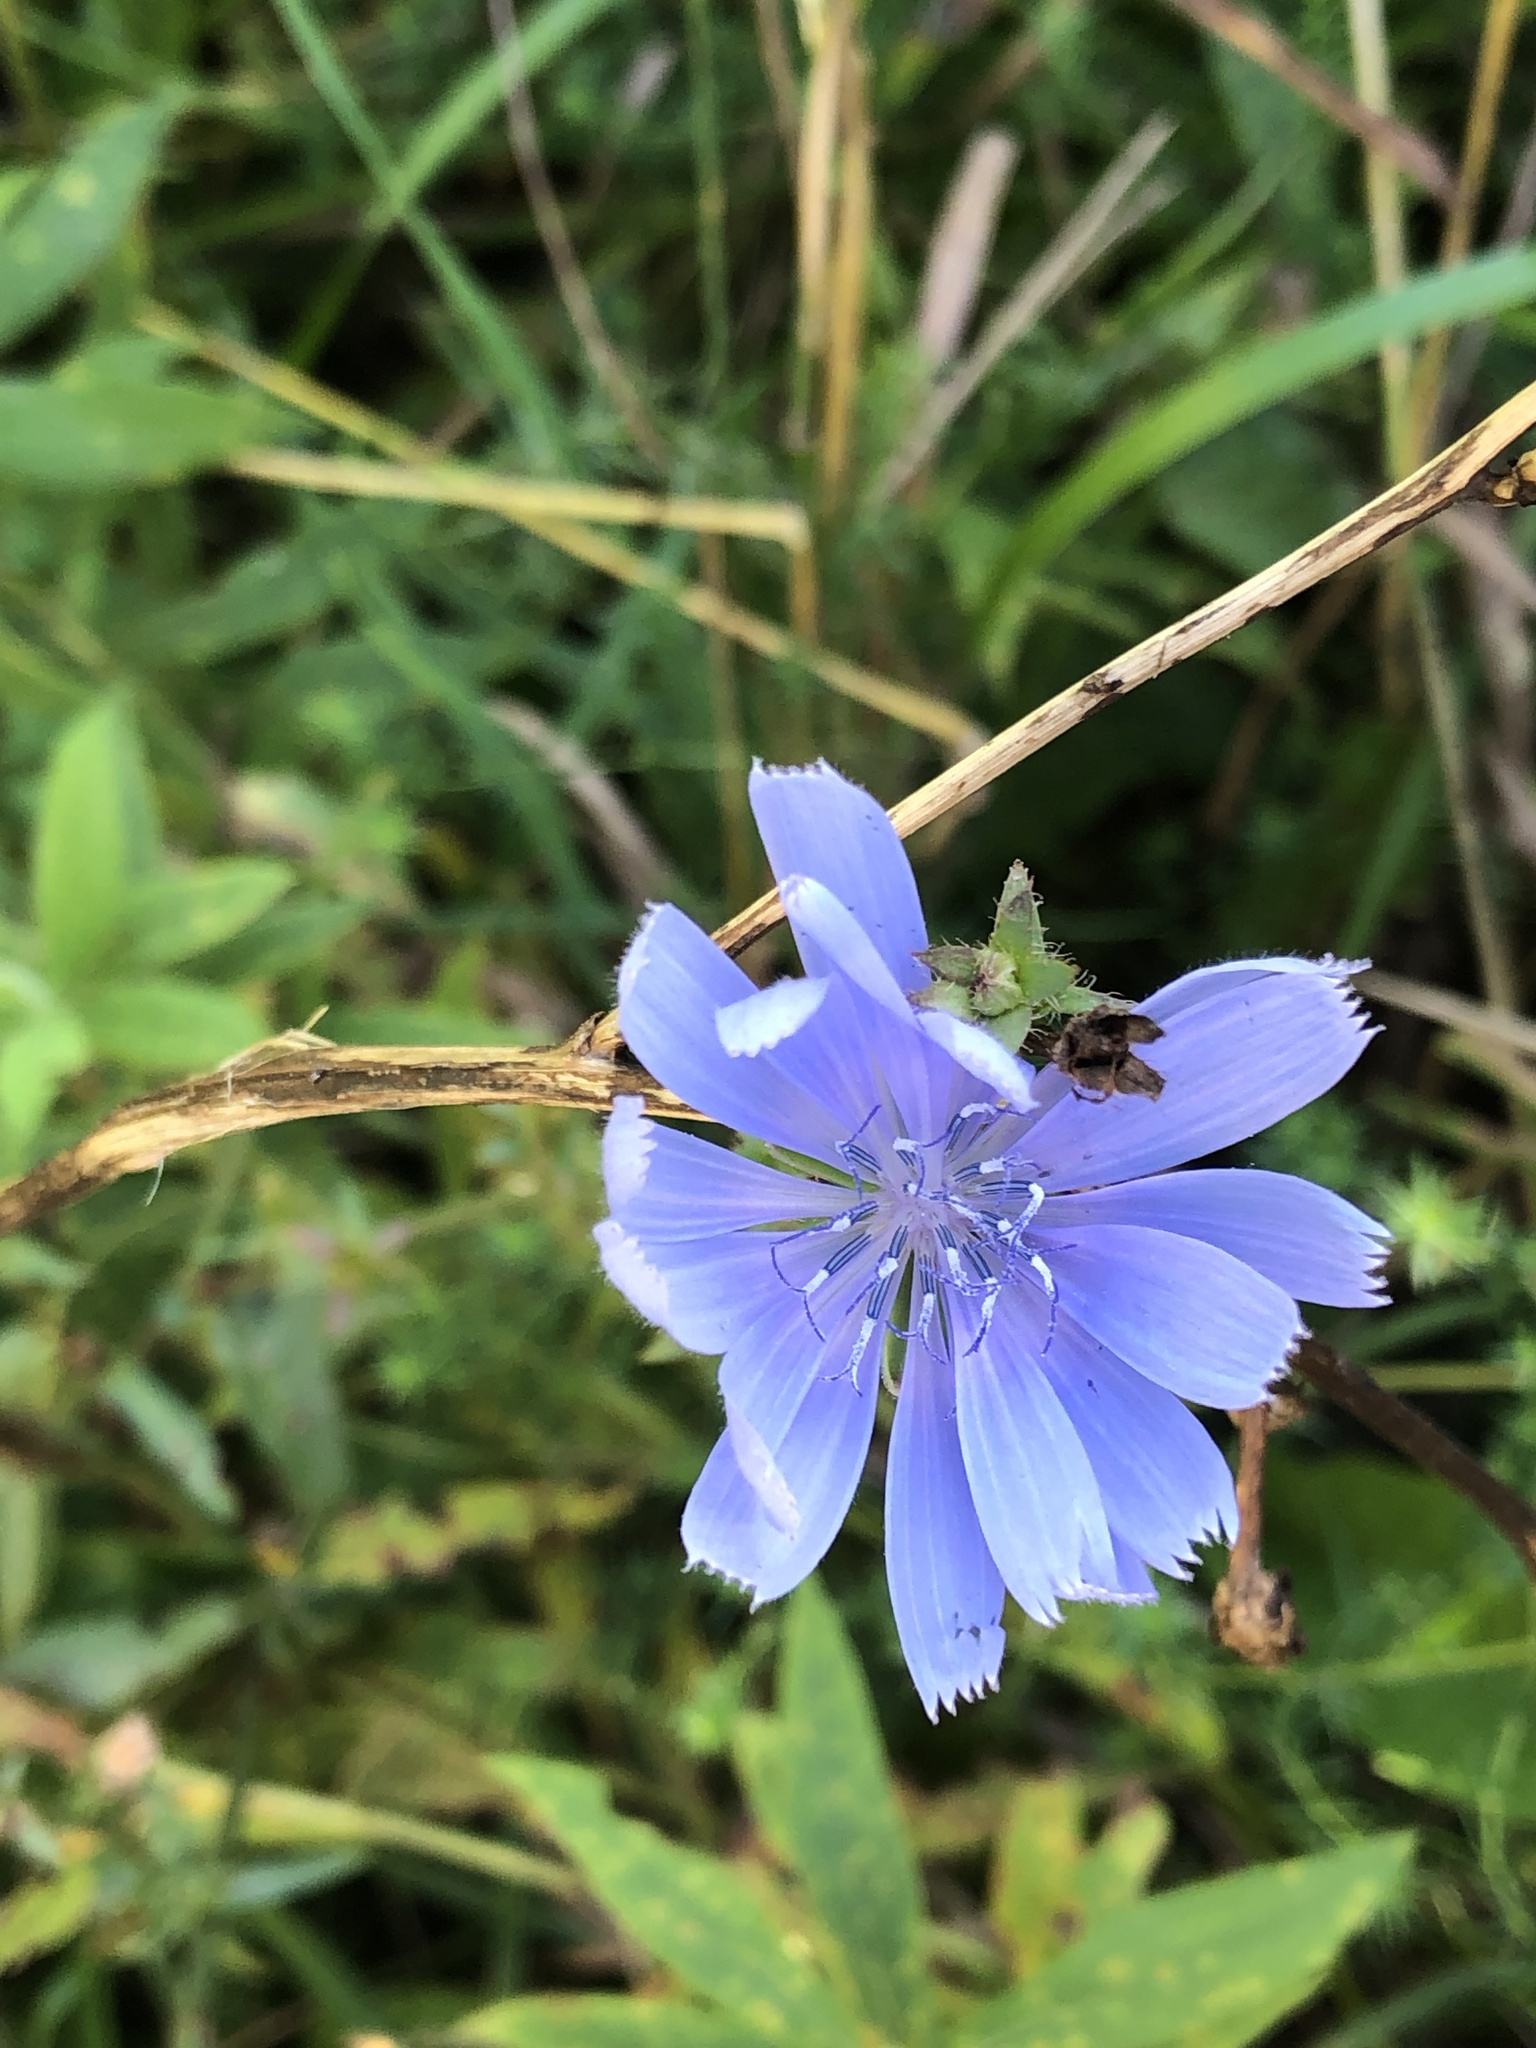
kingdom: Plantae
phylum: Tracheophyta
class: Magnoliopsida
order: Asterales
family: Asteraceae
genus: Cichorium
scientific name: Cichorium intybus
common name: Chicory
